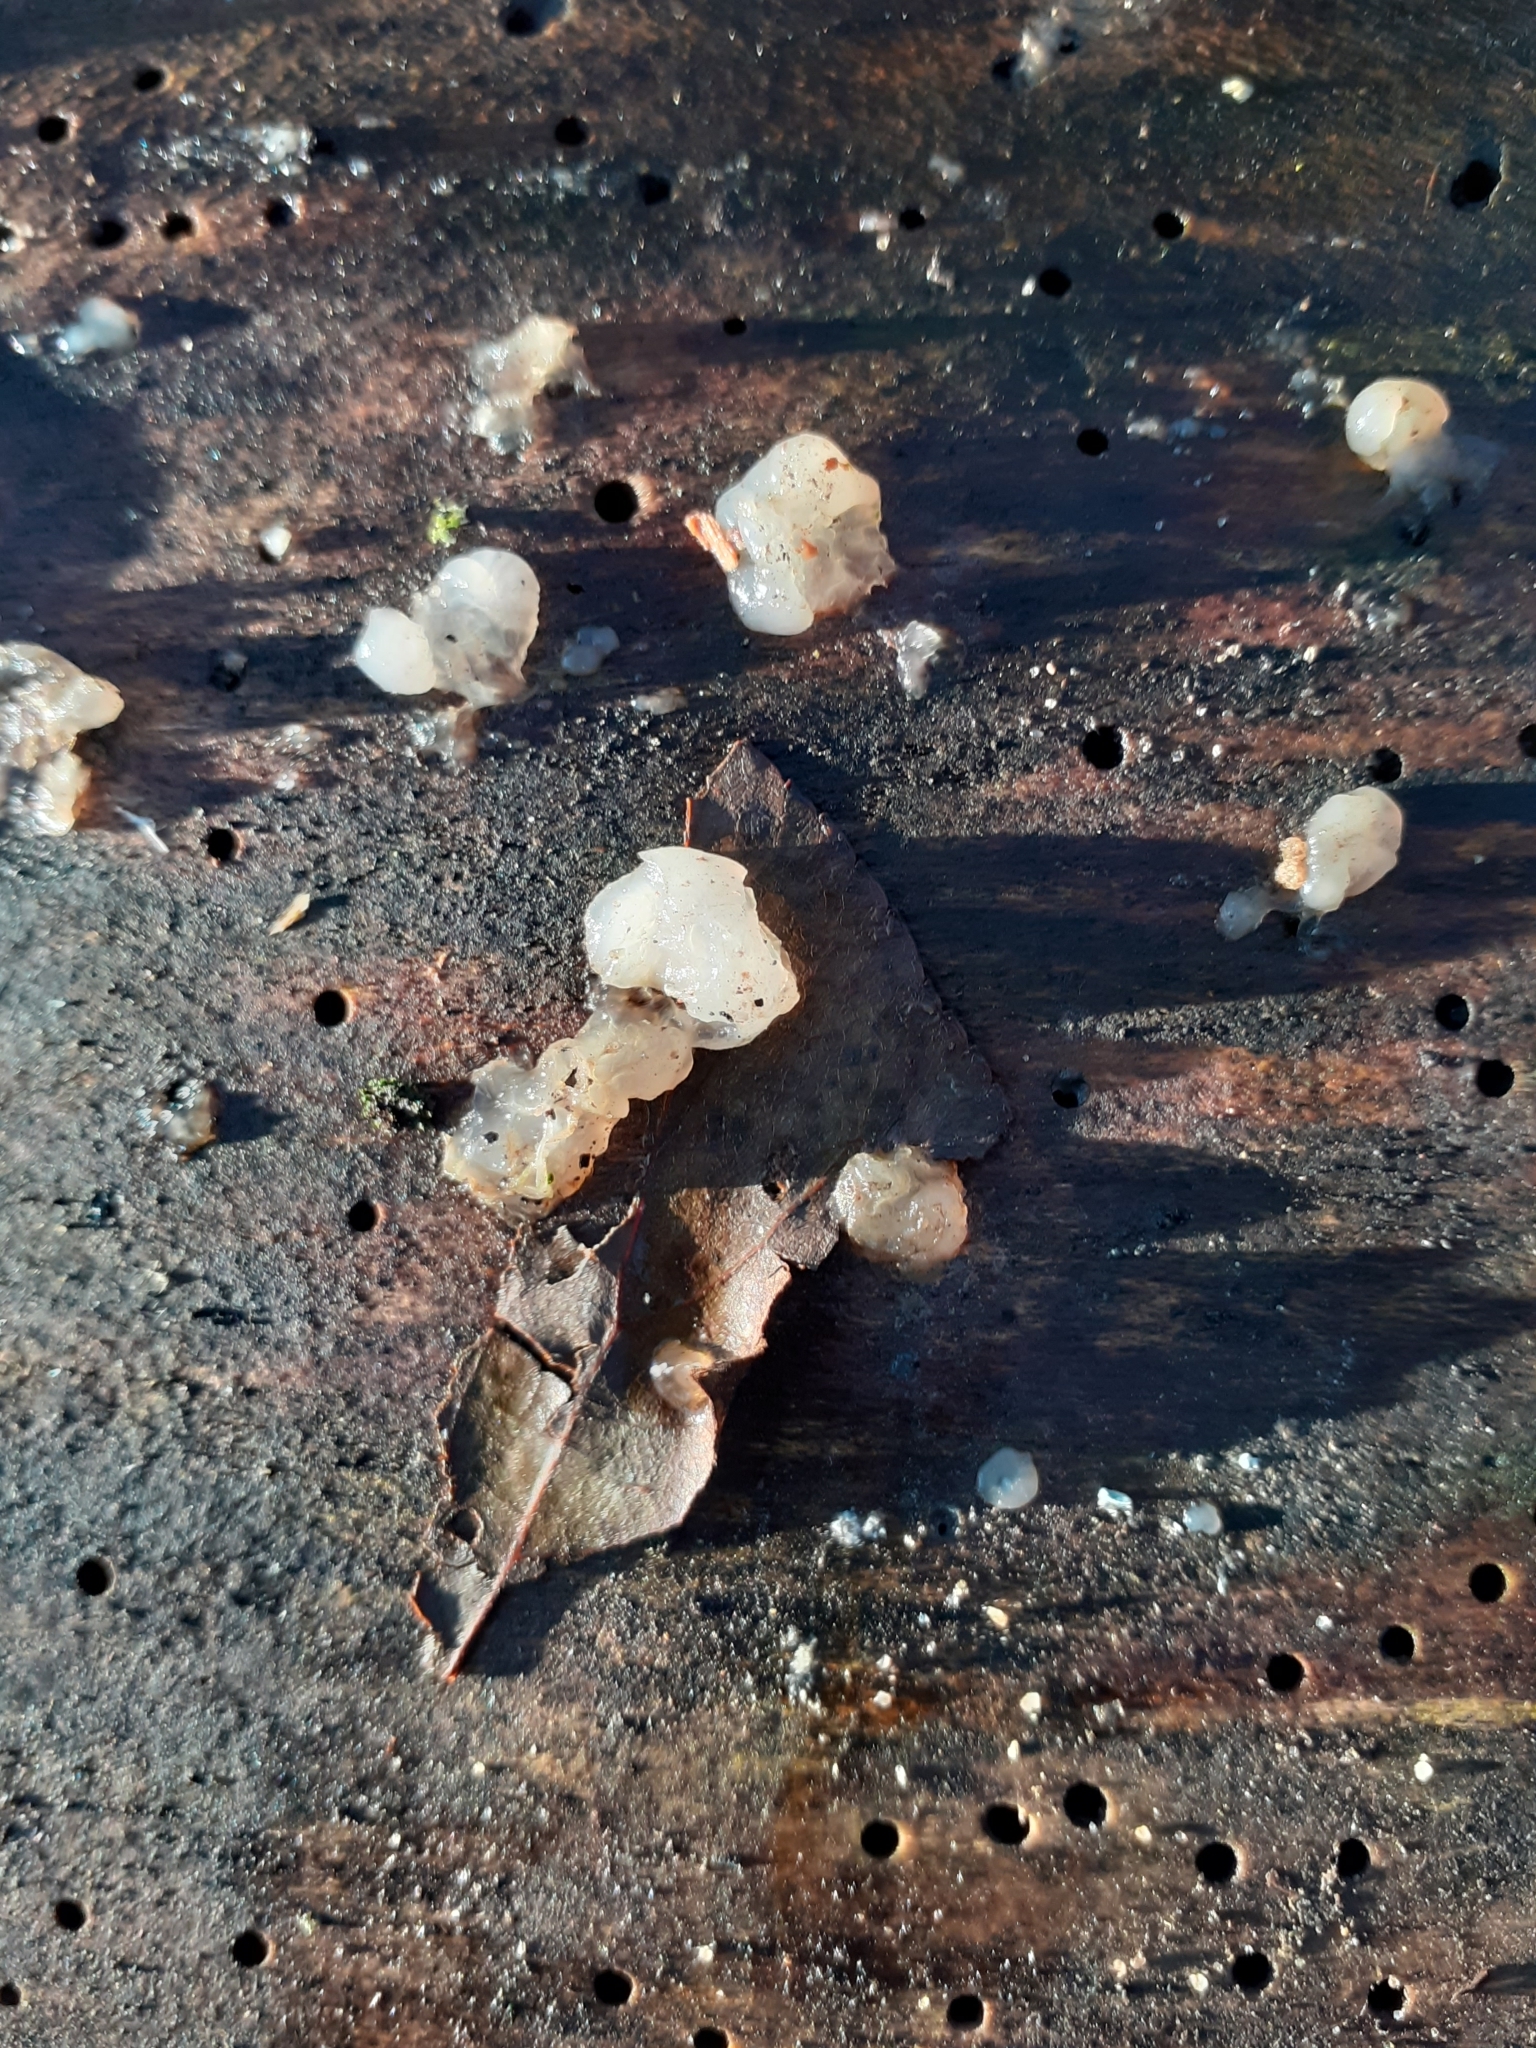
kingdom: Fungi
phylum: Basidiomycota
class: Agaricomycetes
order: Auriculariales
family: Hyaloriaceae
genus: Myxarium
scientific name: Myxarium nucleatum
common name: Crystal brain fungus
